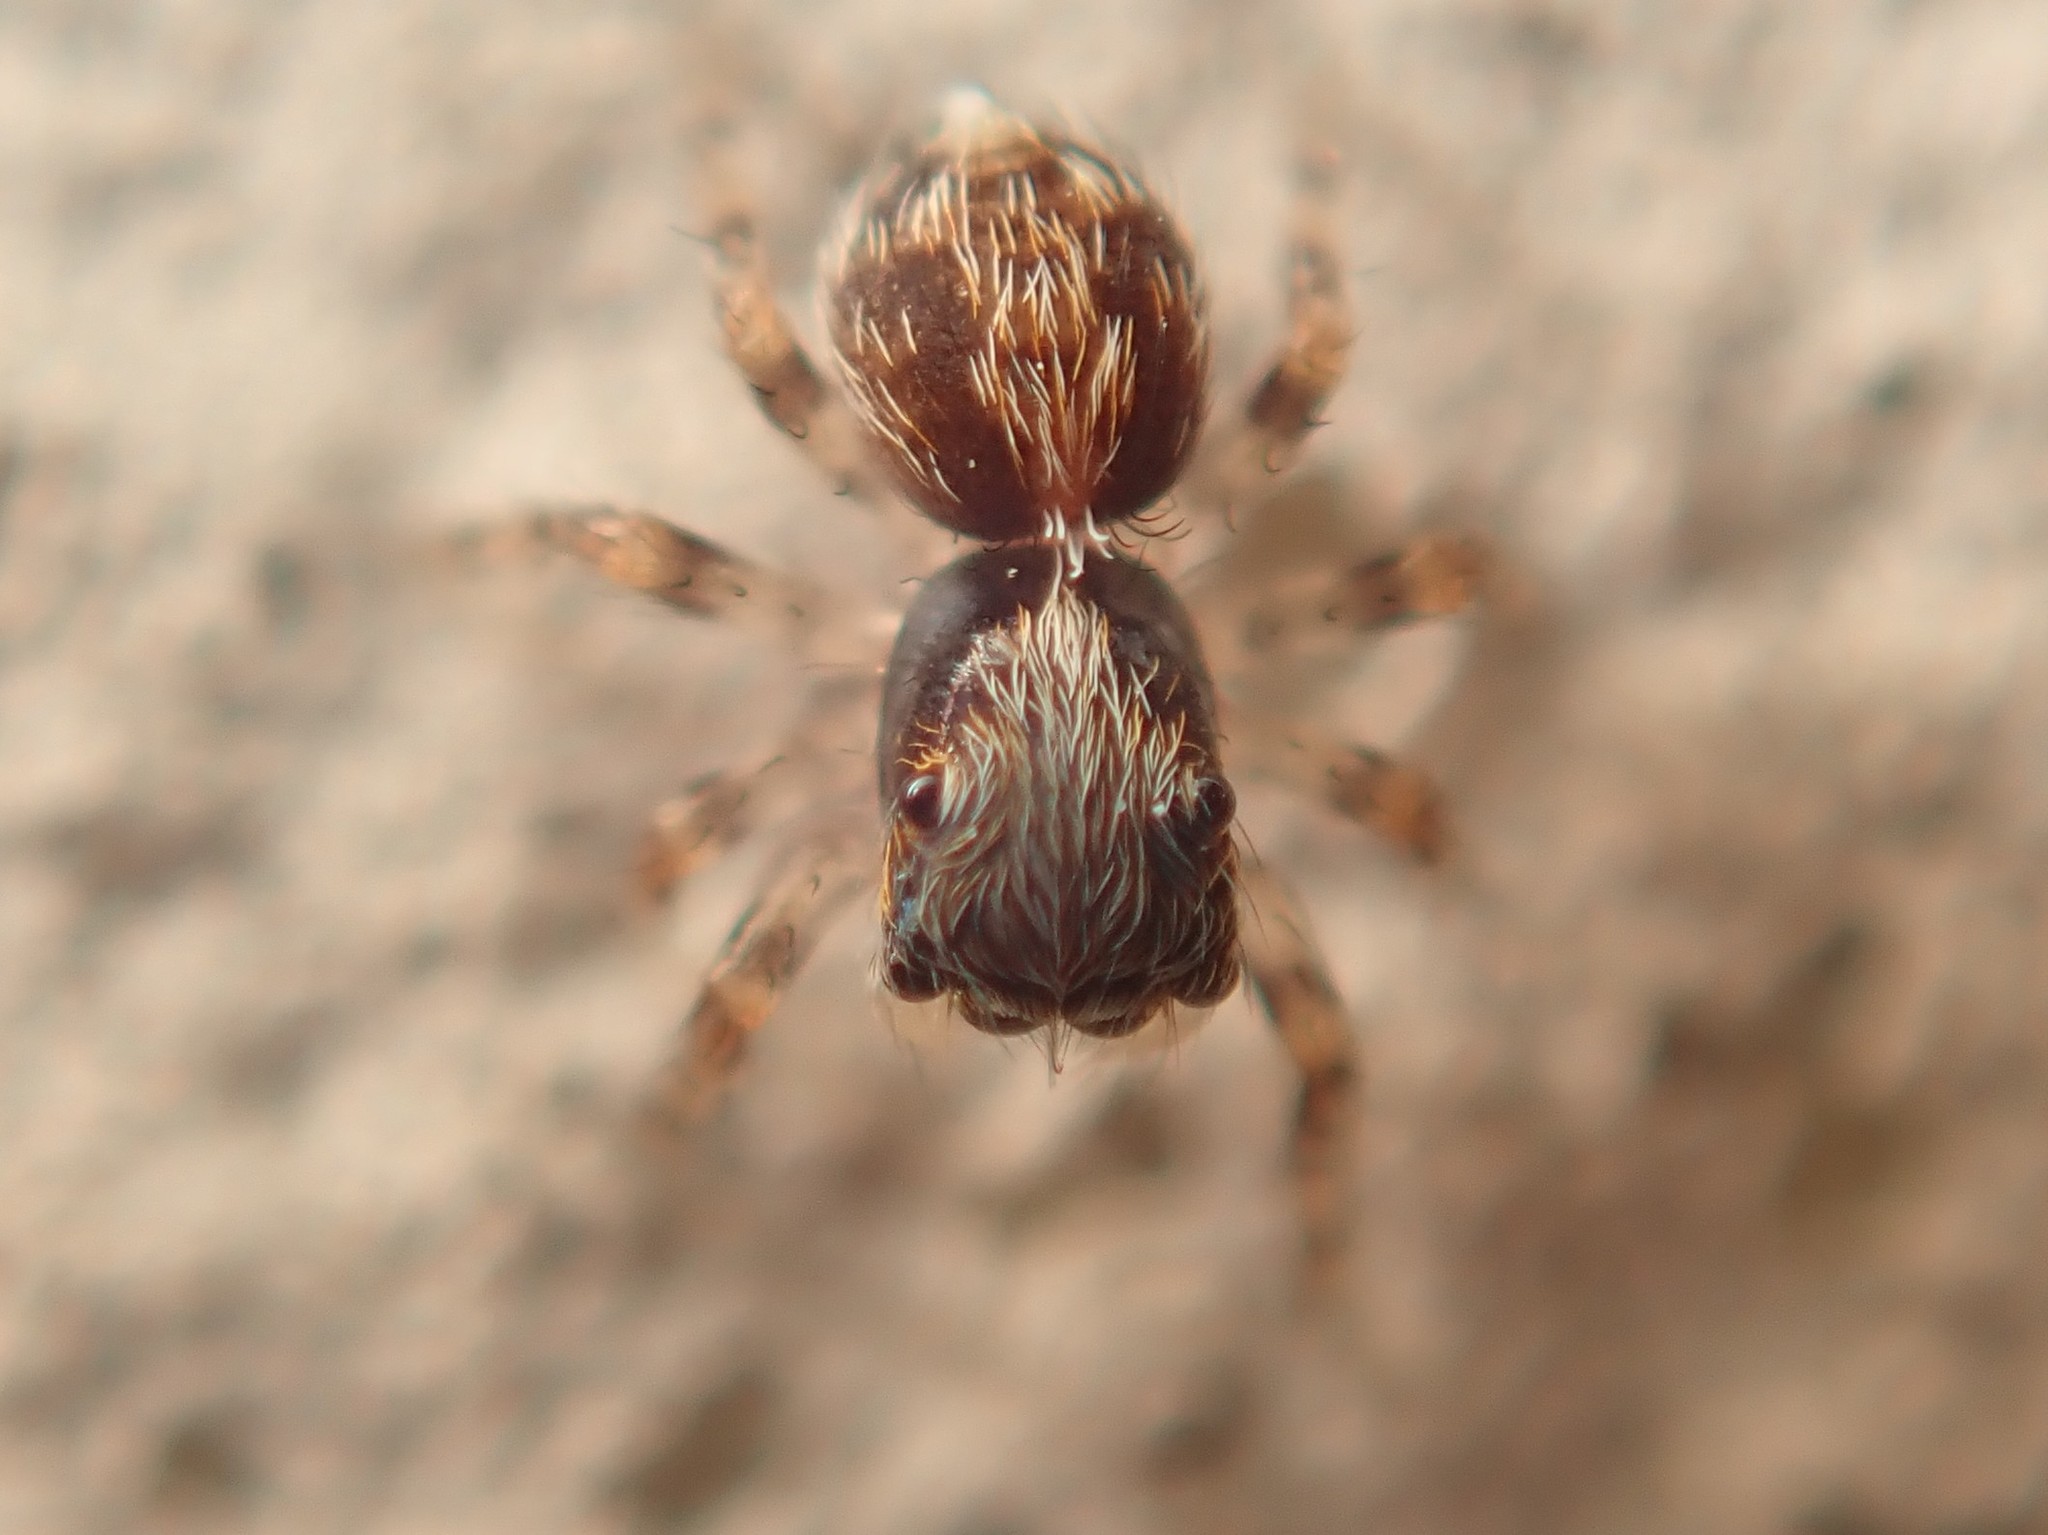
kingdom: Animalia
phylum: Arthropoda
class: Arachnida
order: Araneae
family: Salticidae
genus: Pseudeuophrys
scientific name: Pseudeuophrys lanigera
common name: Jumping spider
